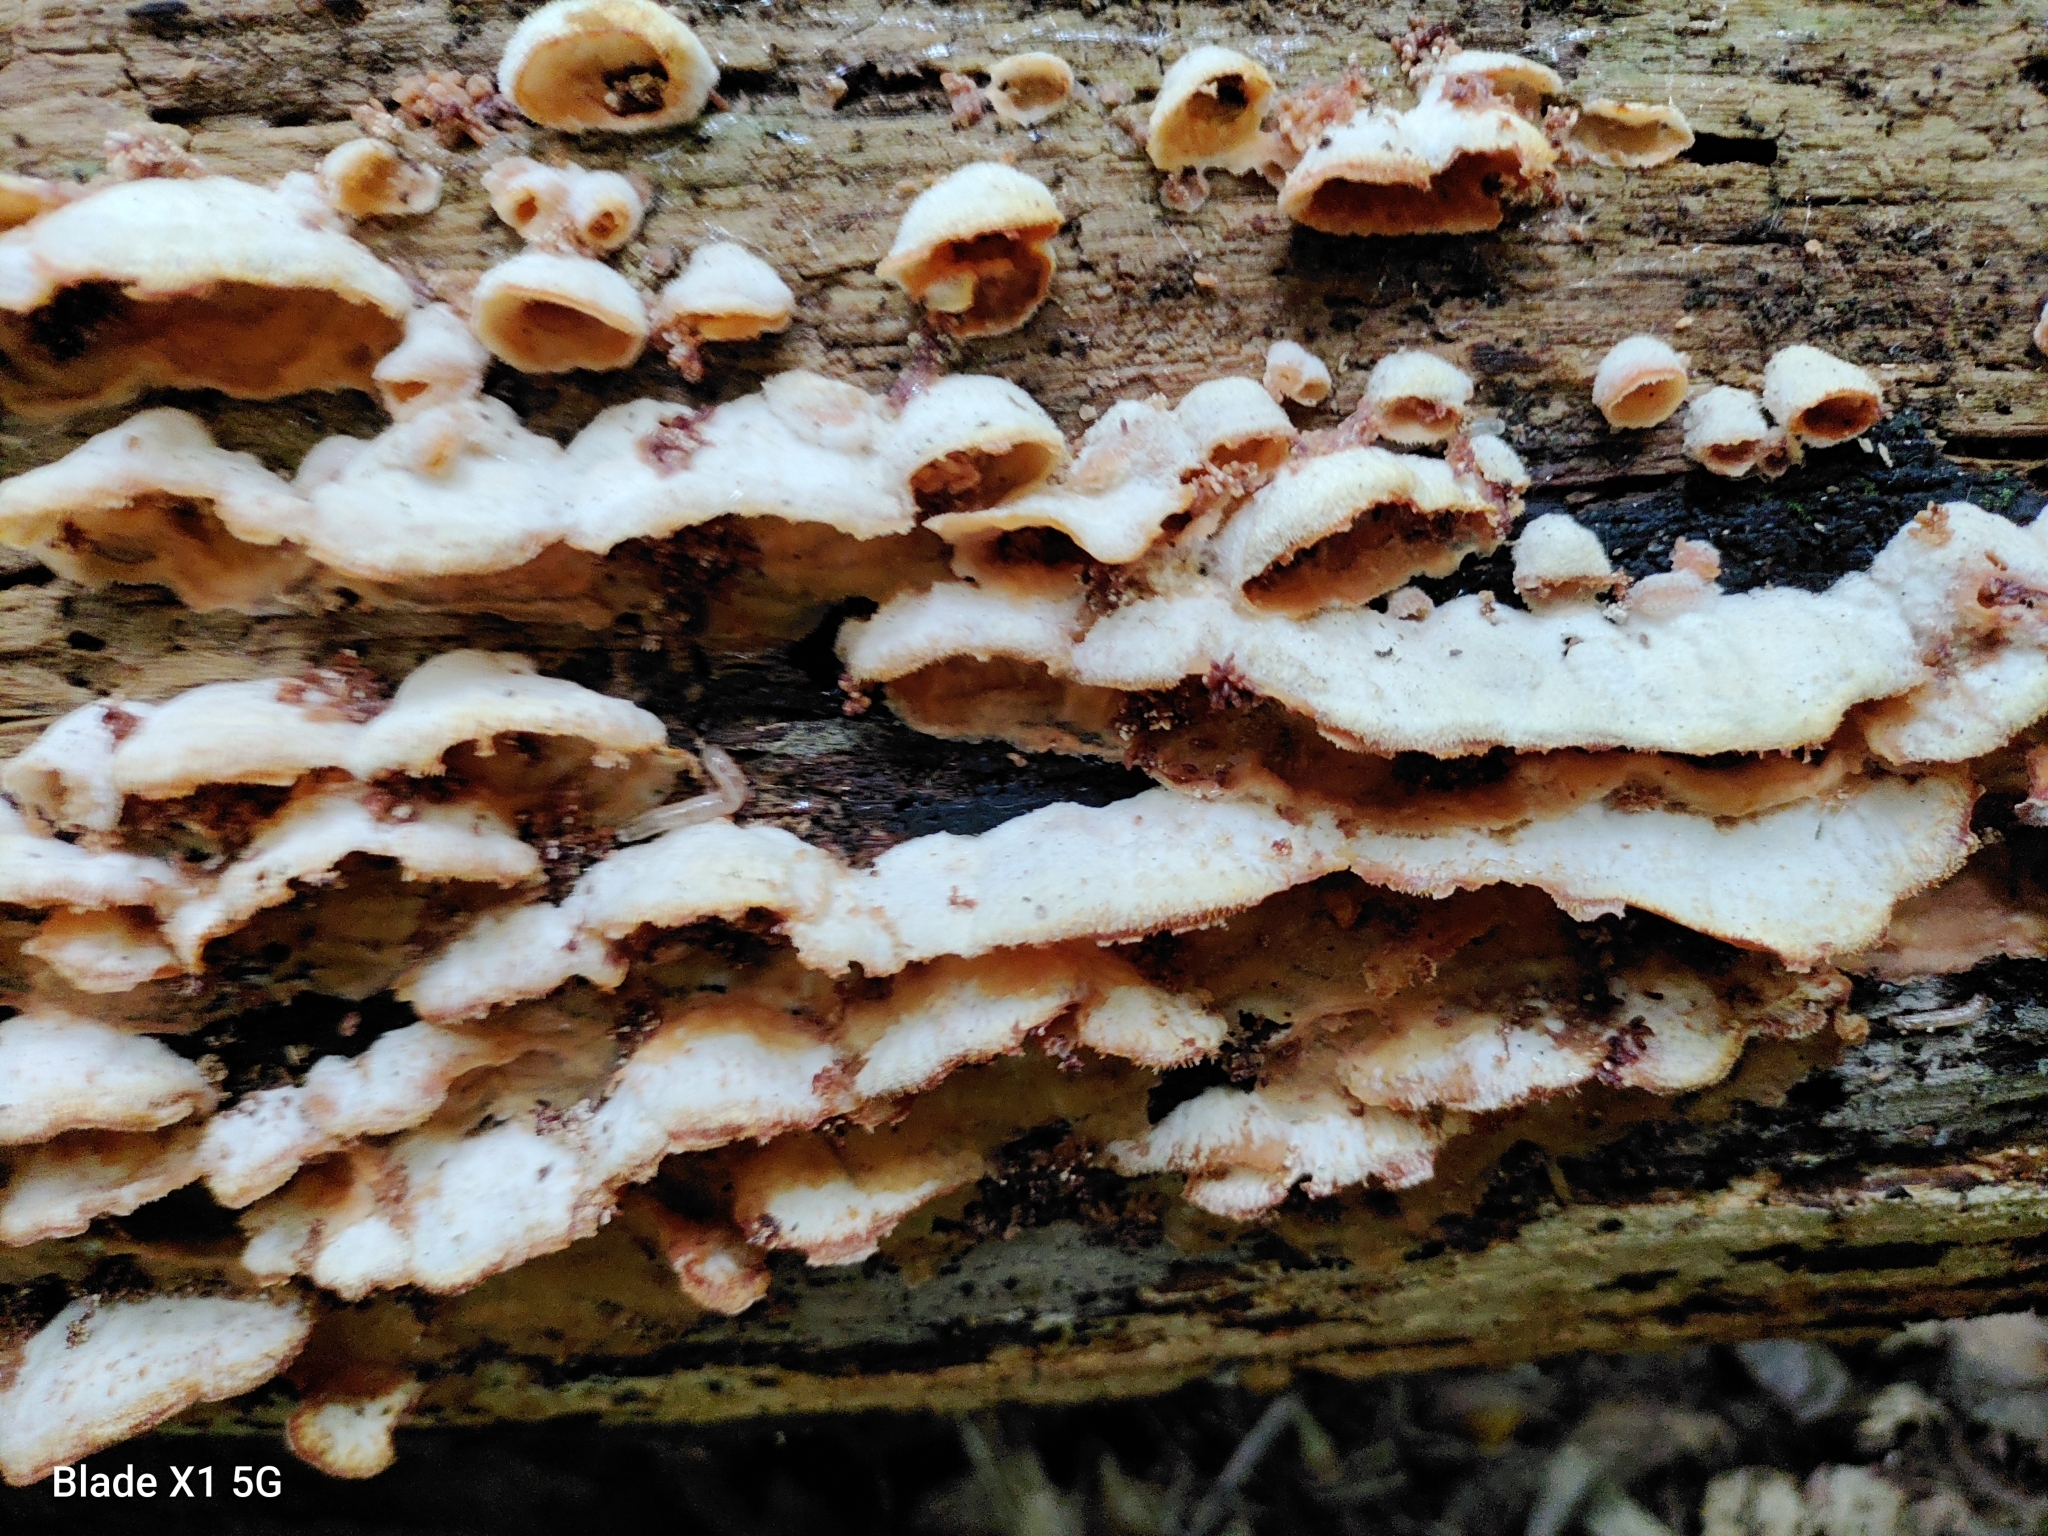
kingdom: Fungi
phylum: Basidiomycota
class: Agaricomycetes
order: Polyporales
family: Meruliaceae
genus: Phlebia
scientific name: Phlebia tremellosa
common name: Jelly rot
